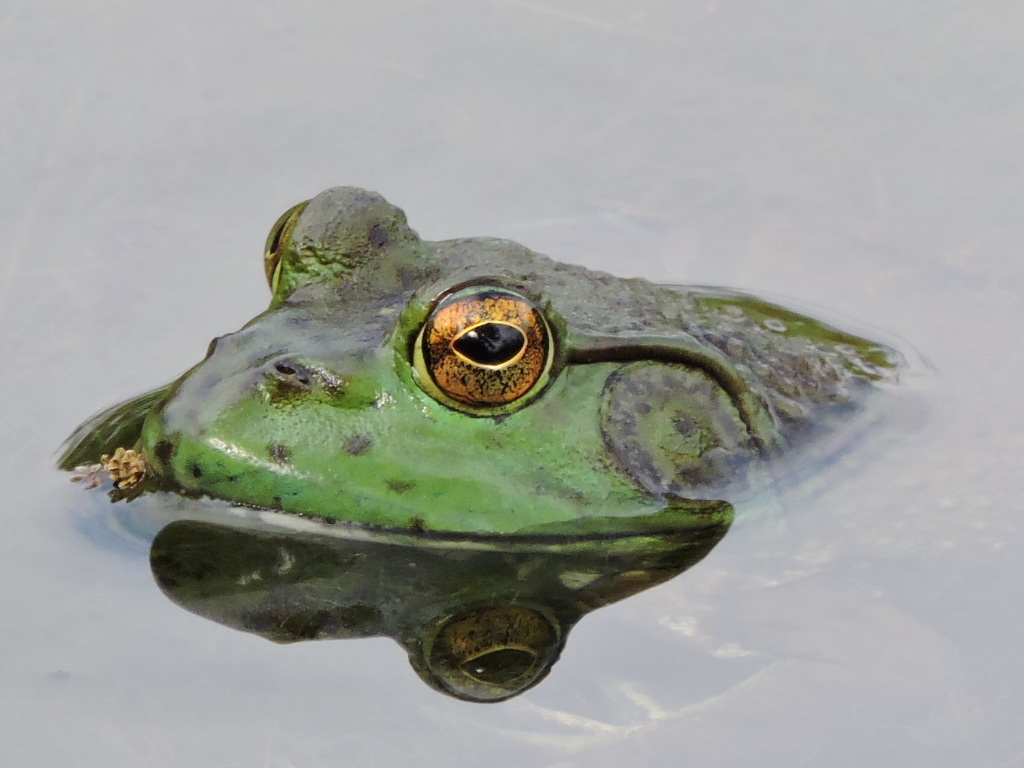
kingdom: Animalia
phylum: Chordata
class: Amphibia
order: Anura
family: Ranidae
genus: Lithobates
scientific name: Lithobates catesbeianus
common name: American bullfrog
